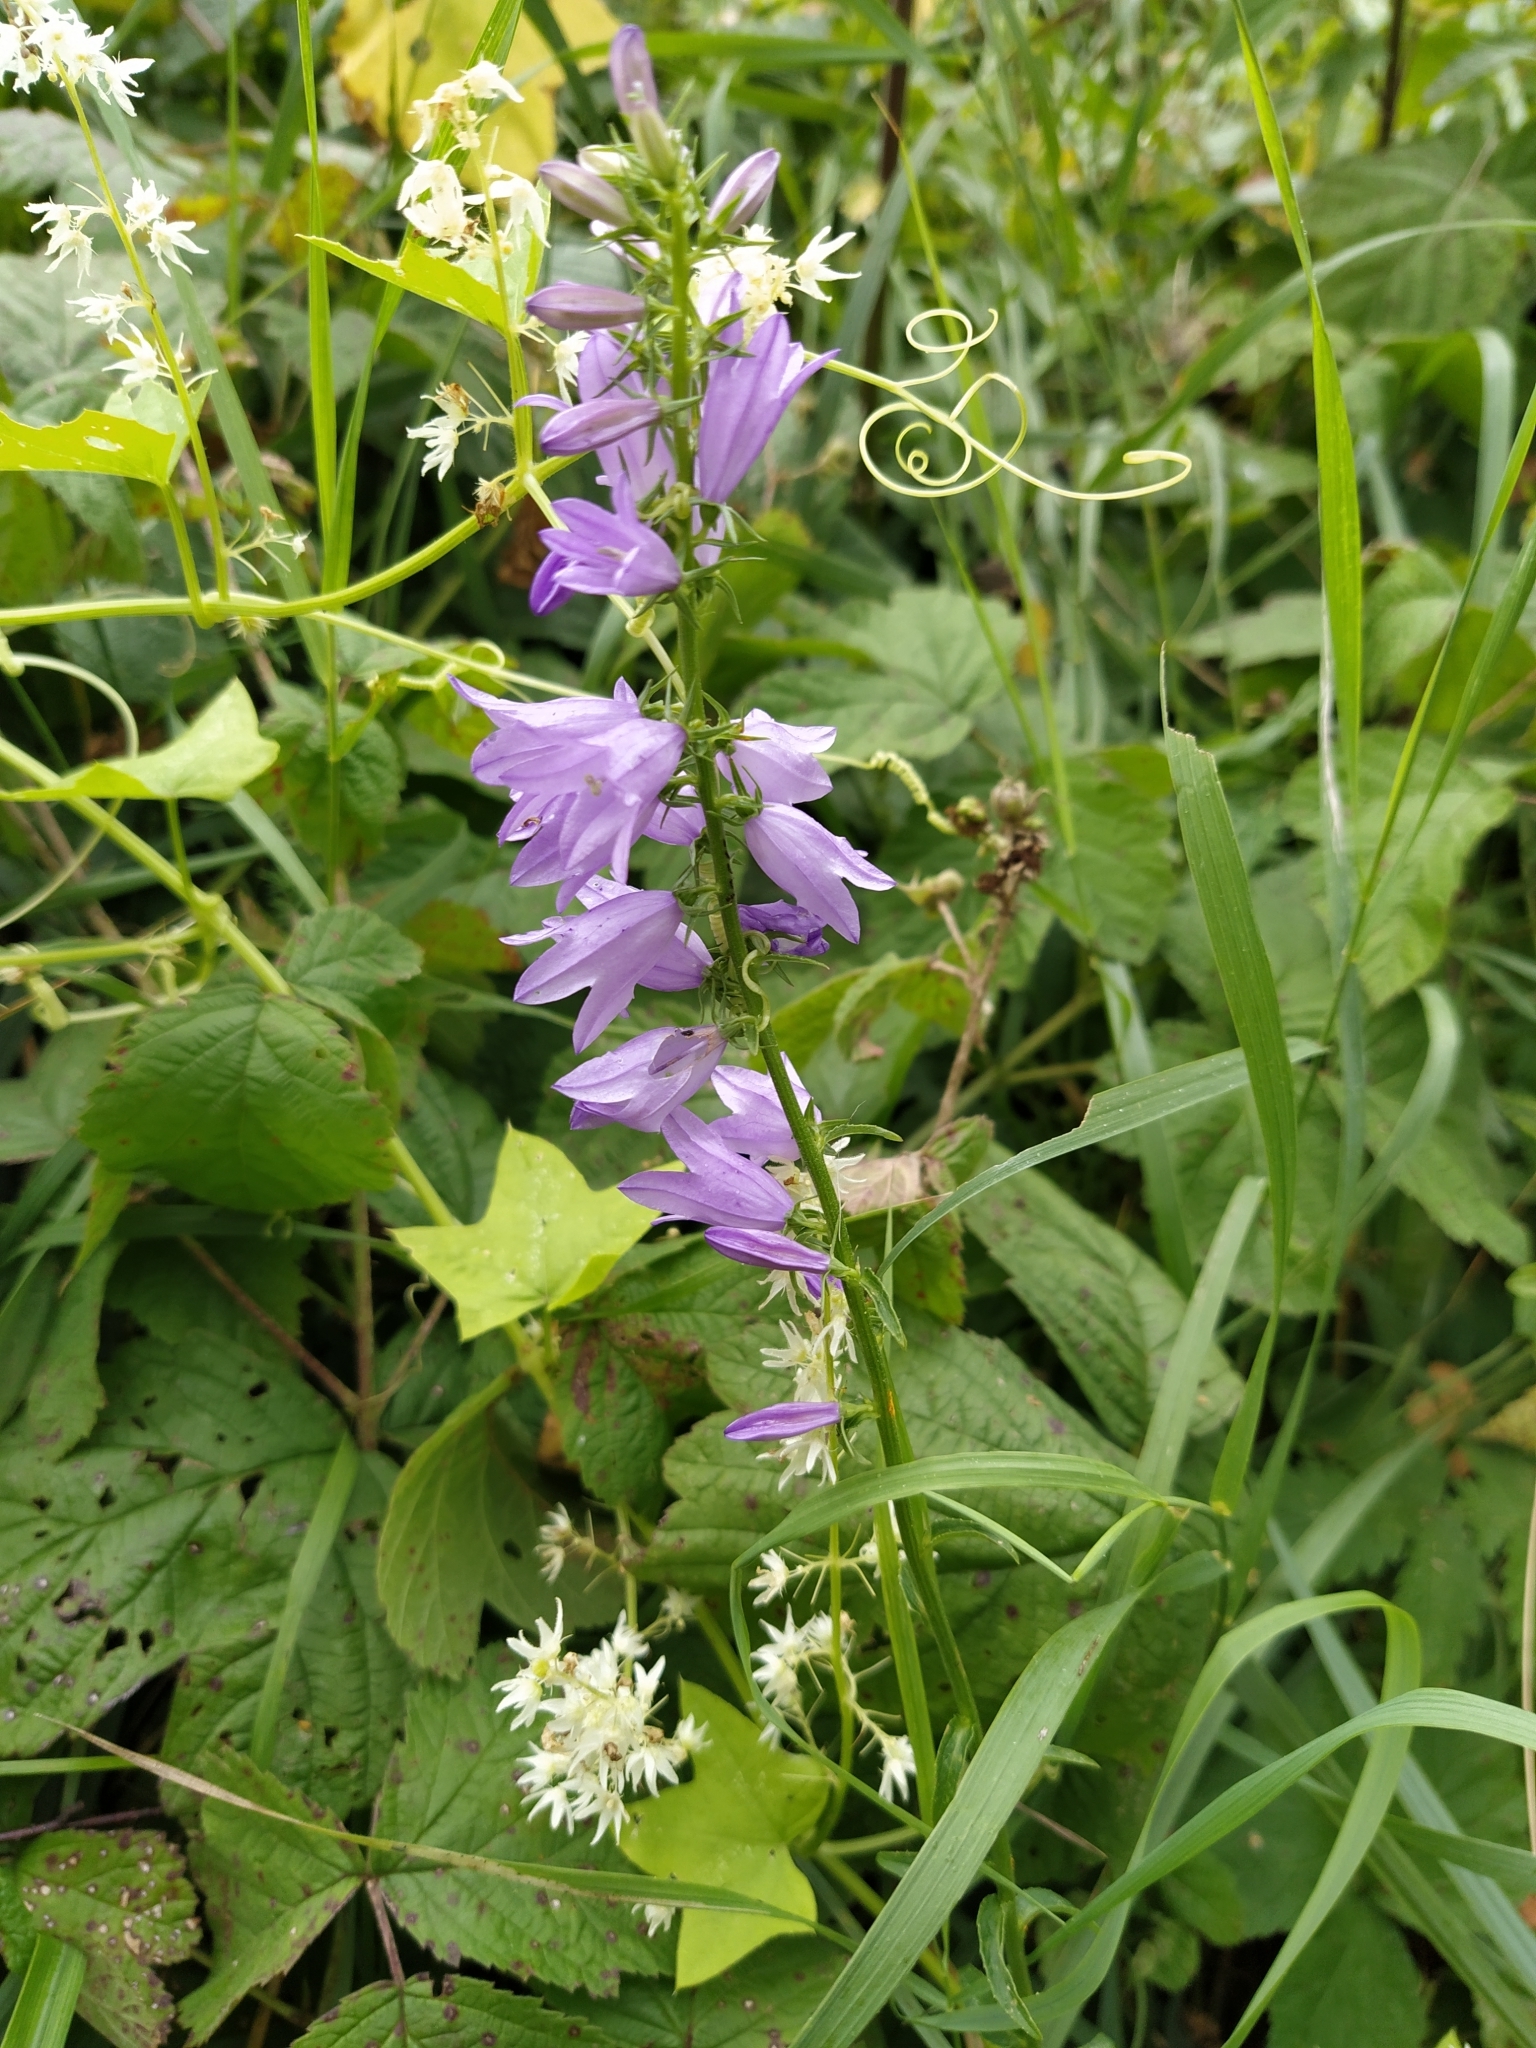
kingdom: Plantae
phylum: Tracheophyta
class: Magnoliopsida
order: Asterales
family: Campanulaceae
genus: Campanula
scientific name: Campanula rapunculoides
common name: Creeping bellflower
